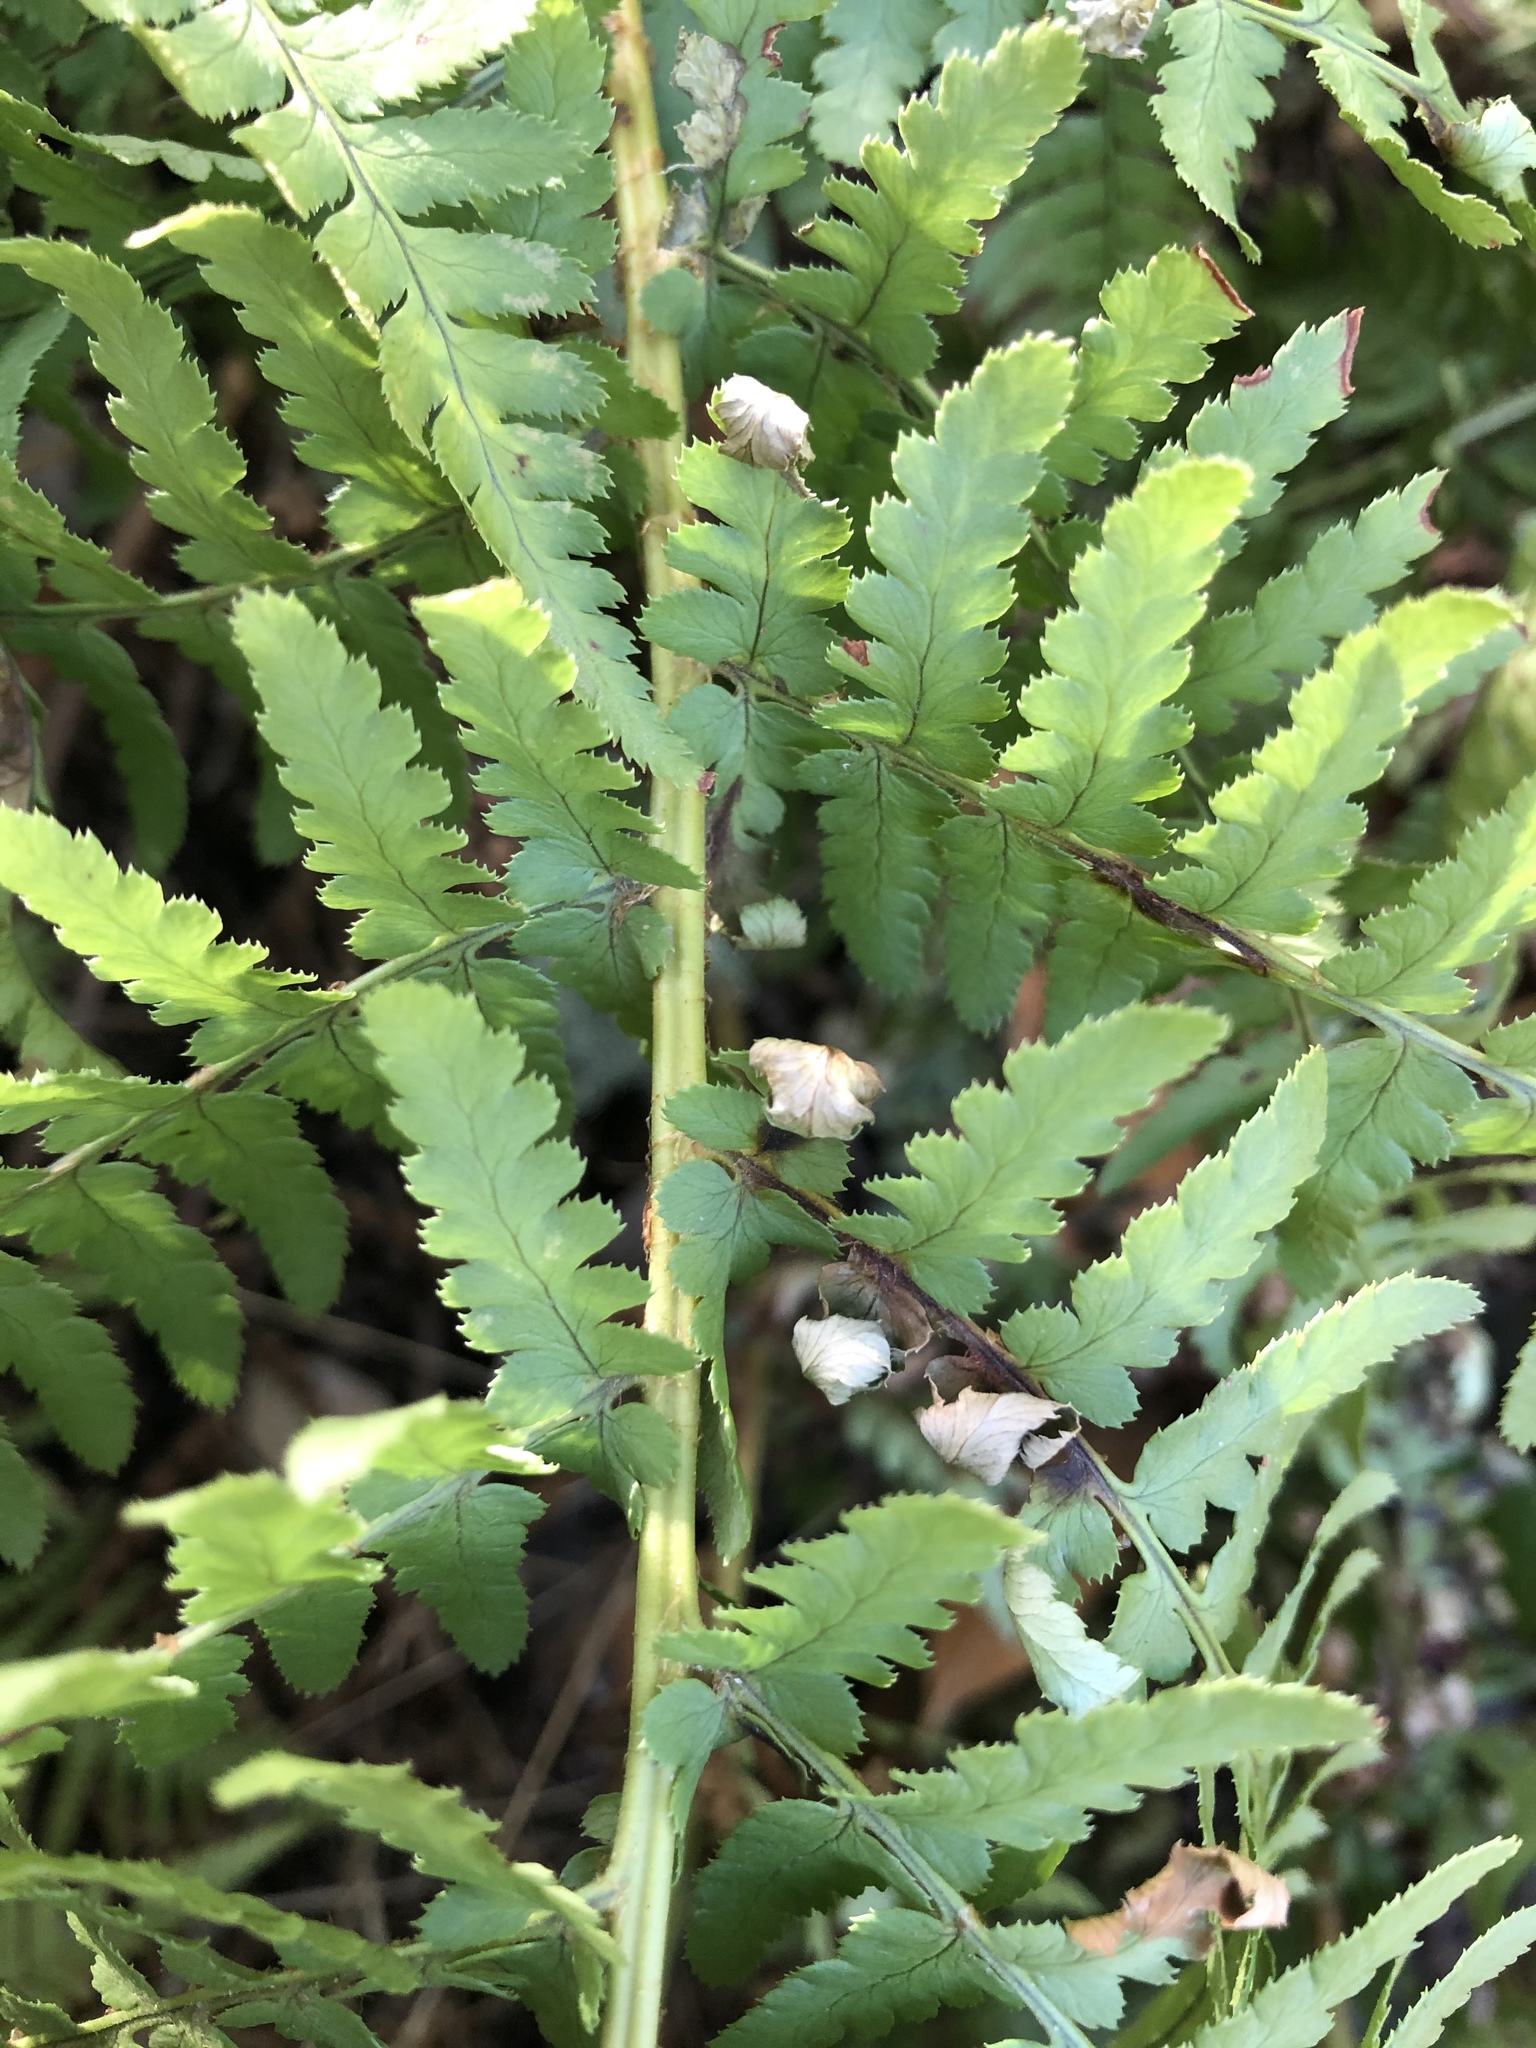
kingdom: Plantae
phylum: Tracheophyta
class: Polypodiopsida
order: Polypodiales
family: Dryopteridaceae
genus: Dryopteris
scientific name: Dryopteris arguta
